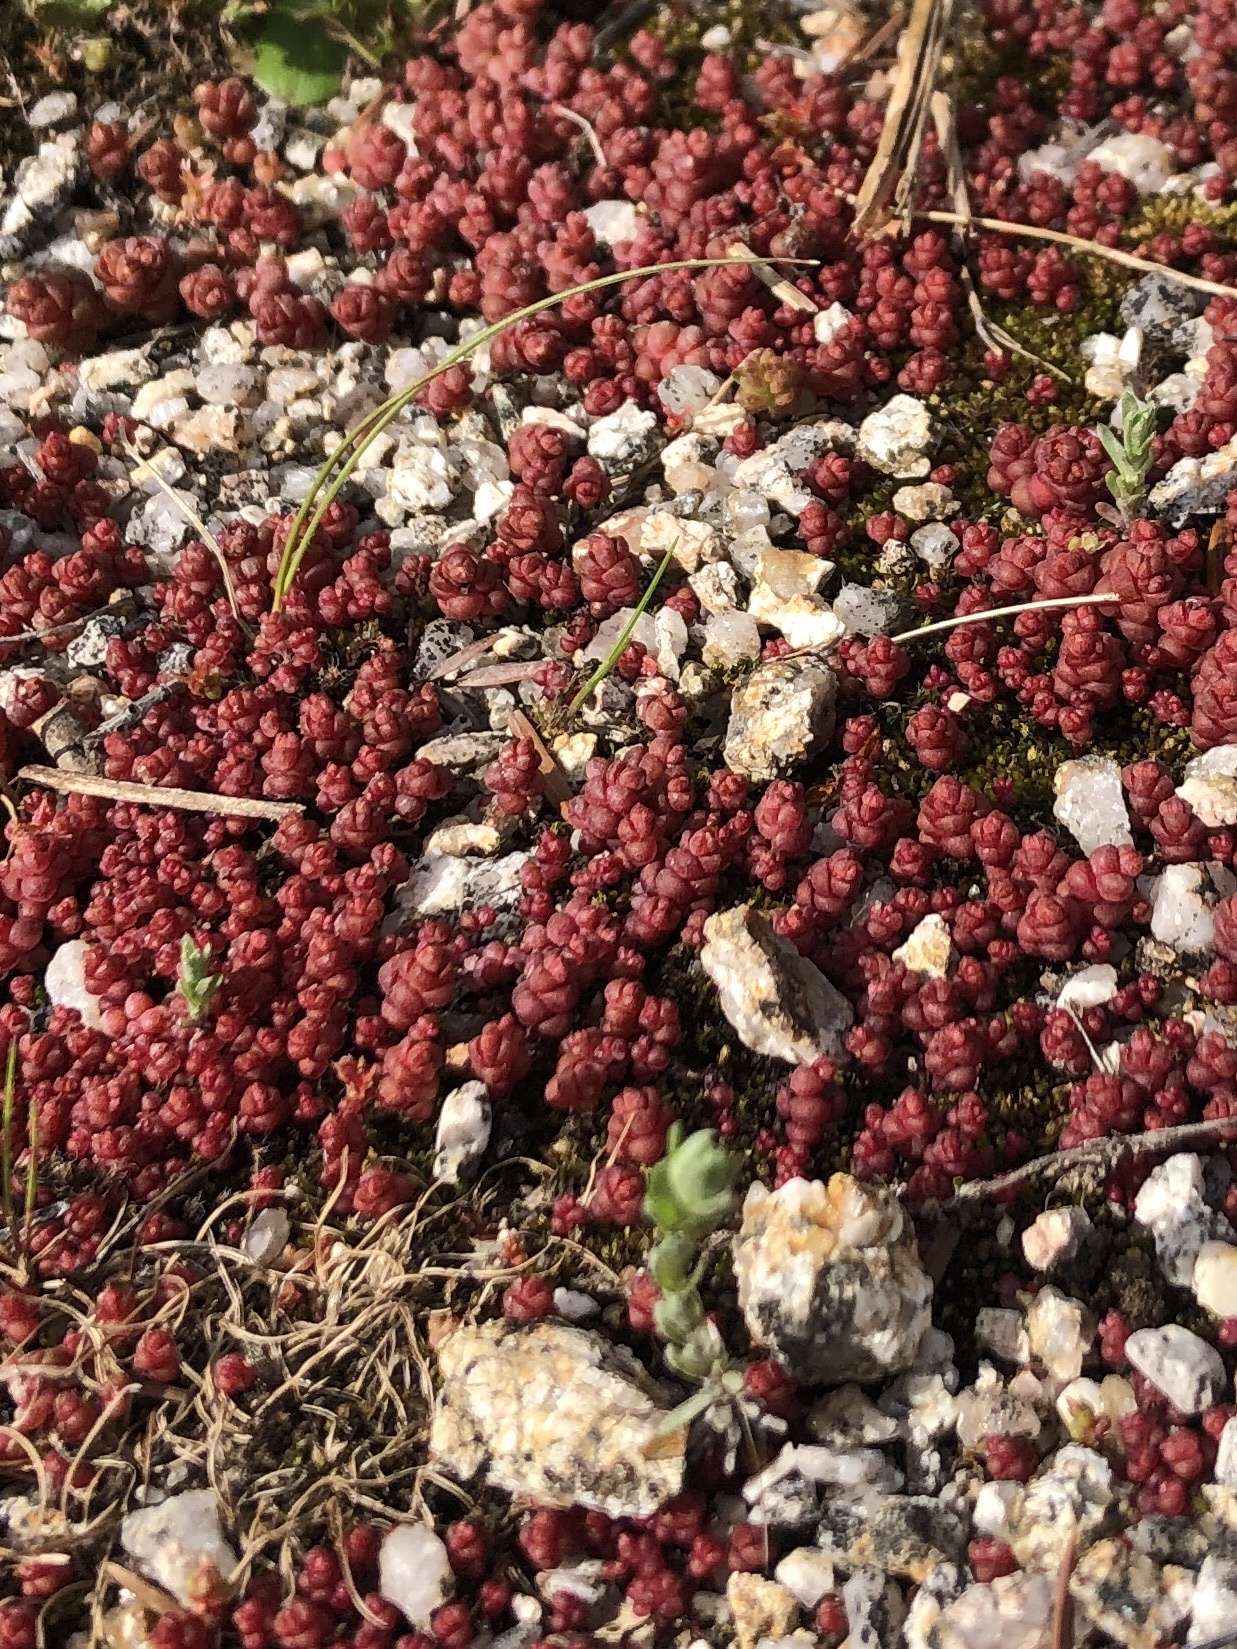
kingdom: Plantae
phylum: Tracheophyta
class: Magnoliopsida
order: Saxifragales
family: Crassulaceae
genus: Sedum
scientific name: Sedum andegavense
